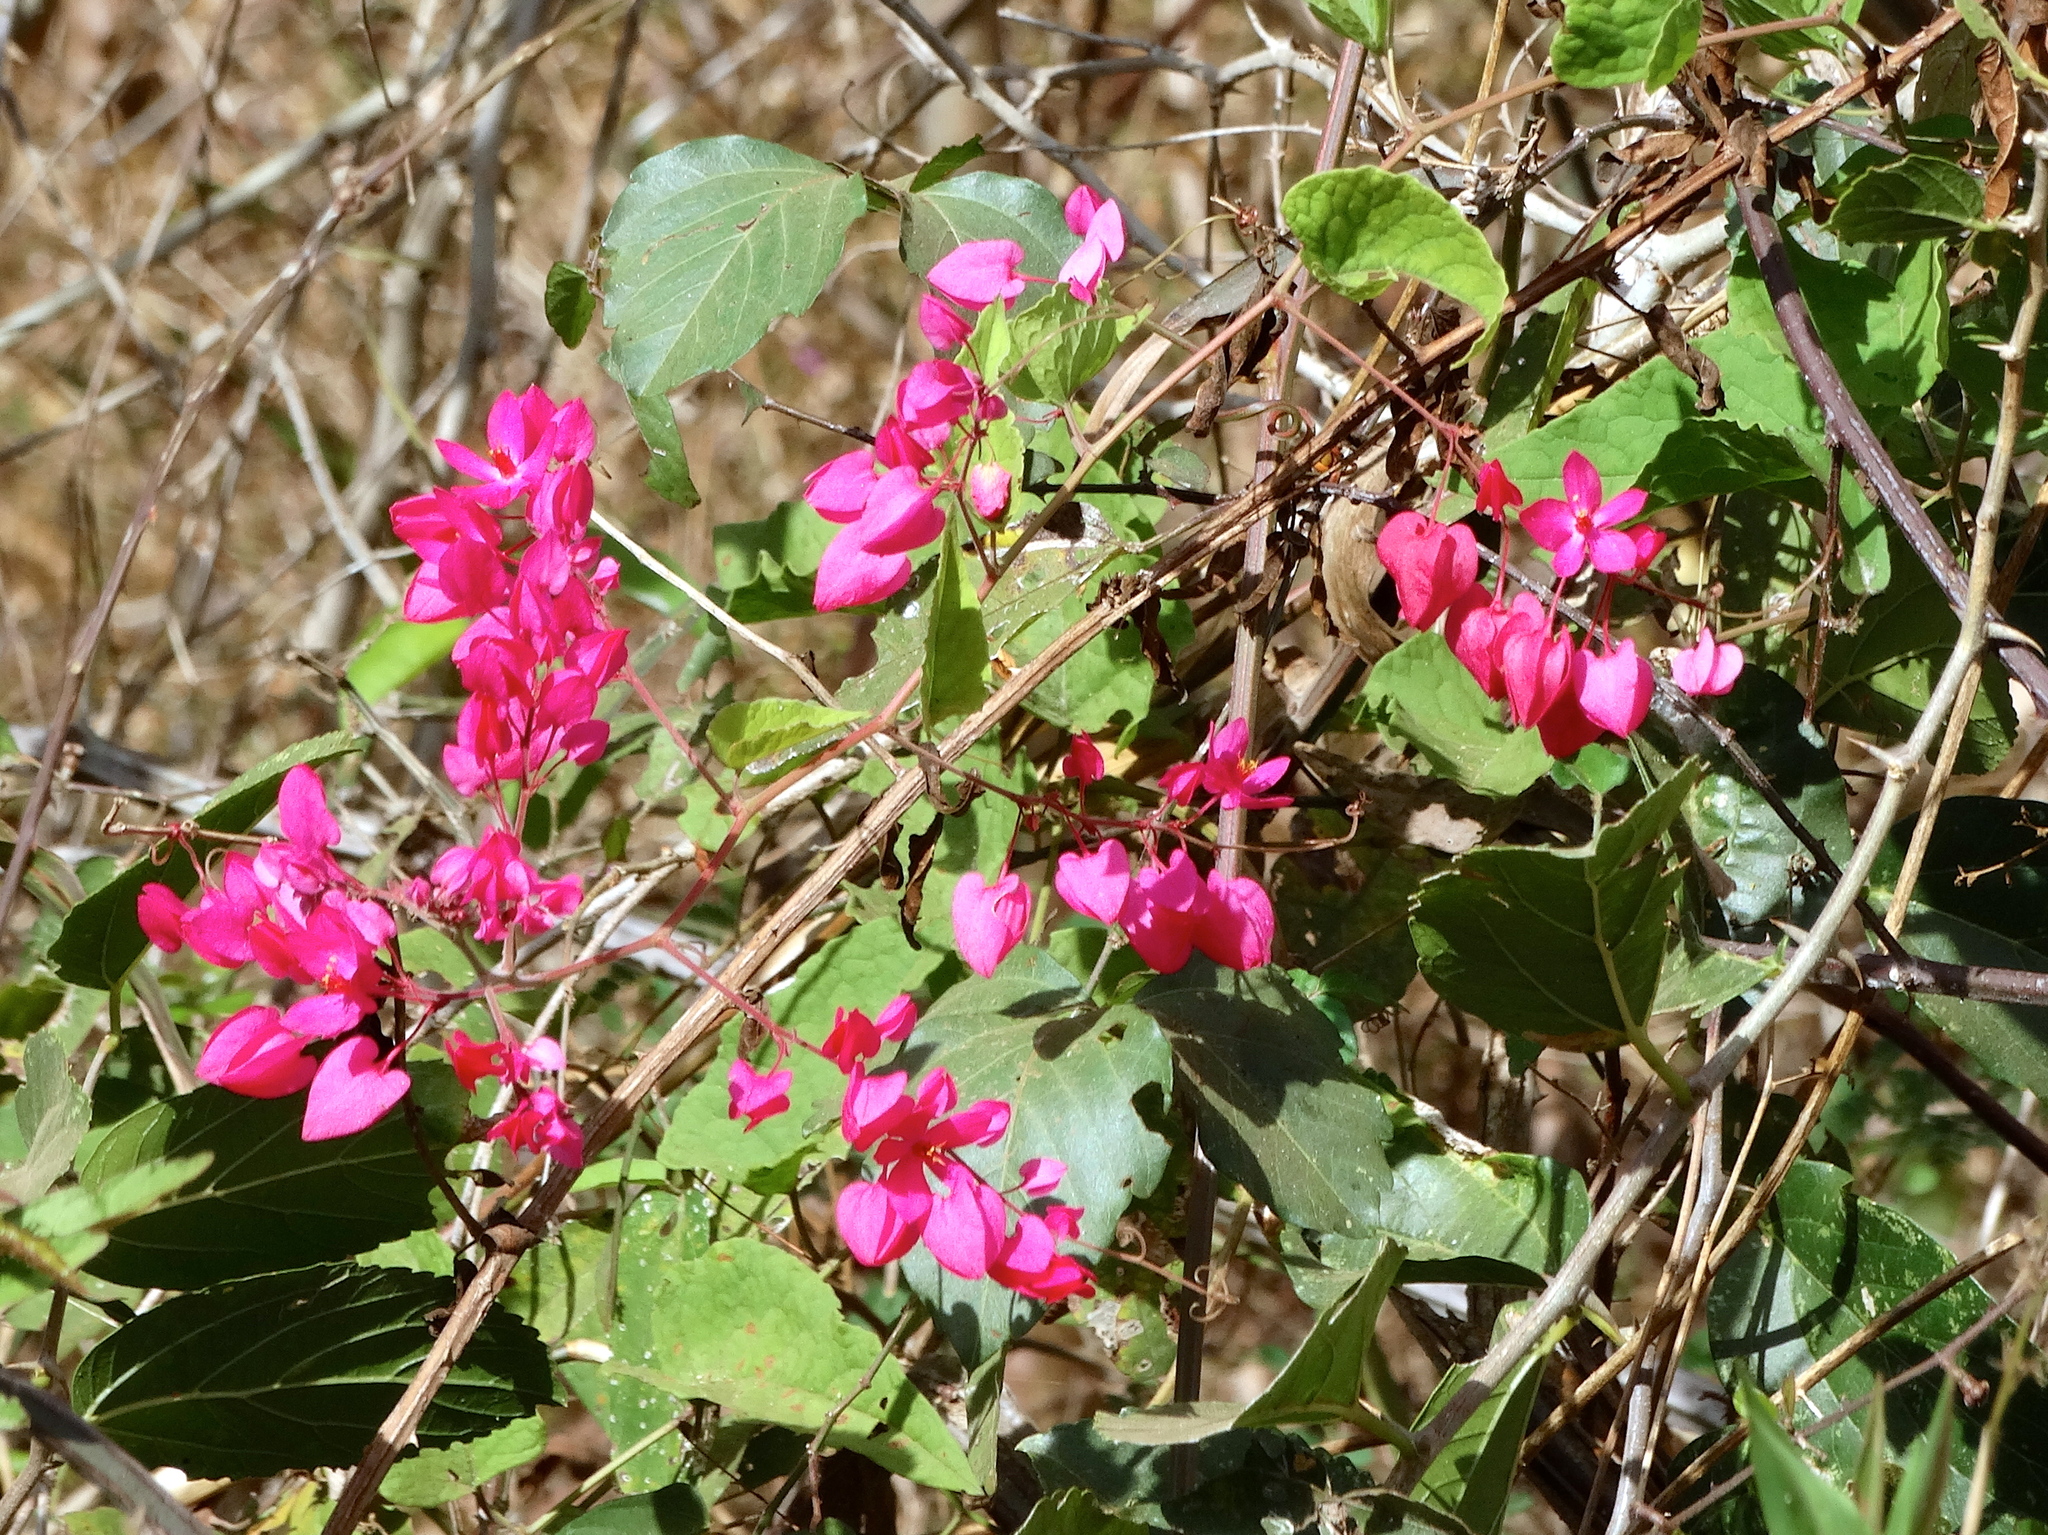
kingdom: Plantae
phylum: Tracheophyta
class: Magnoliopsida
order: Caryophyllales
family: Polygonaceae
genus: Antigonon
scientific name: Antigonon leptopus
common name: Coral vine
